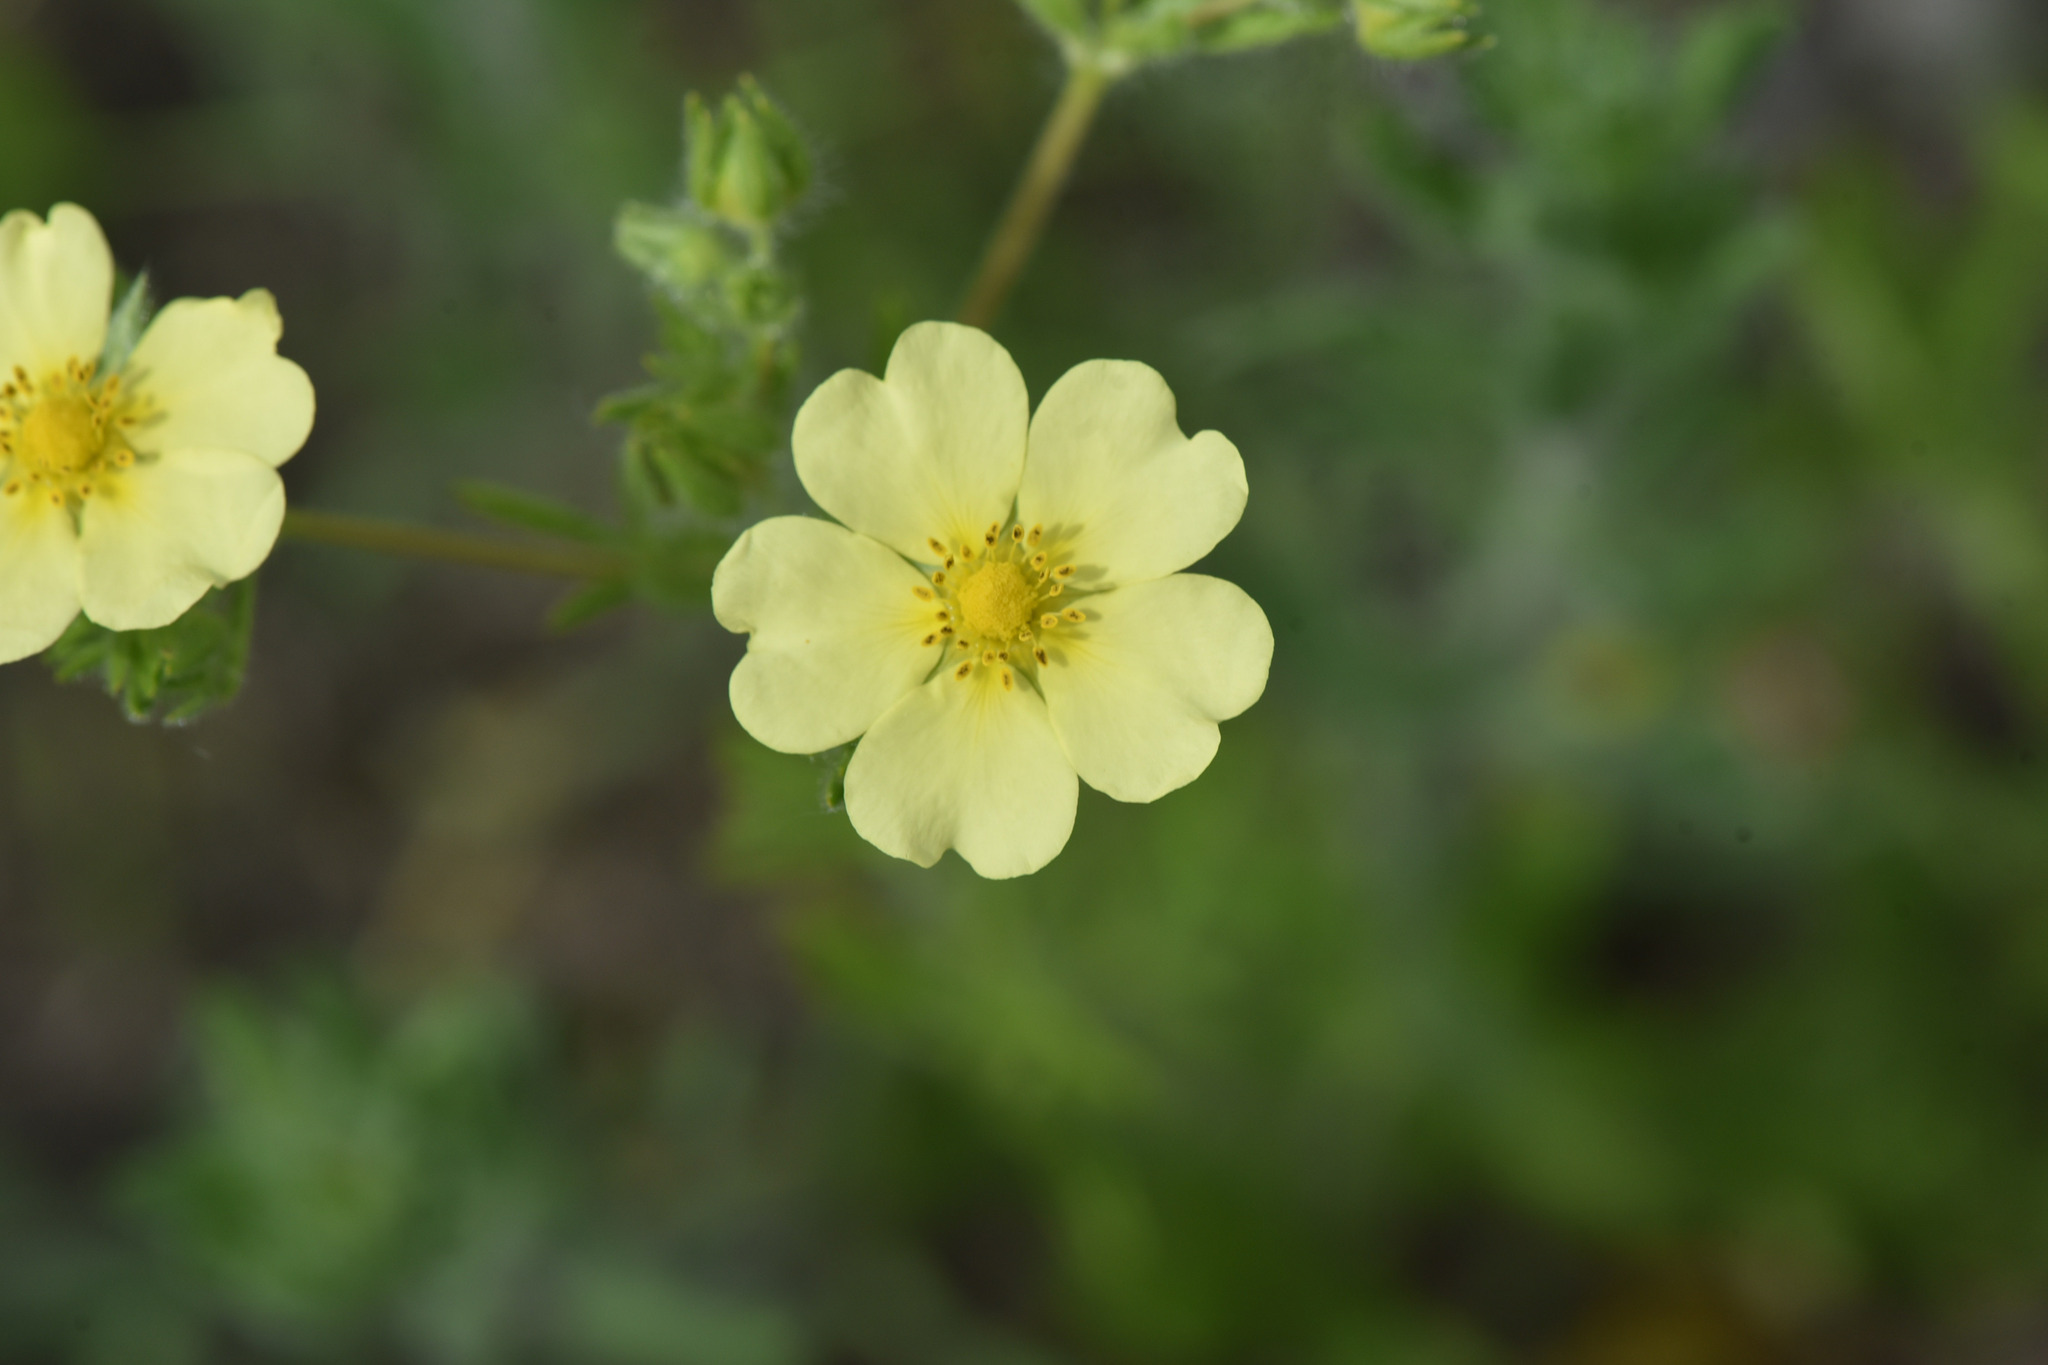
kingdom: Plantae
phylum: Tracheophyta
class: Magnoliopsida
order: Rosales
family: Rosaceae
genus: Potentilla
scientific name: Potentilla recta
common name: Sulphur cinquefoil
